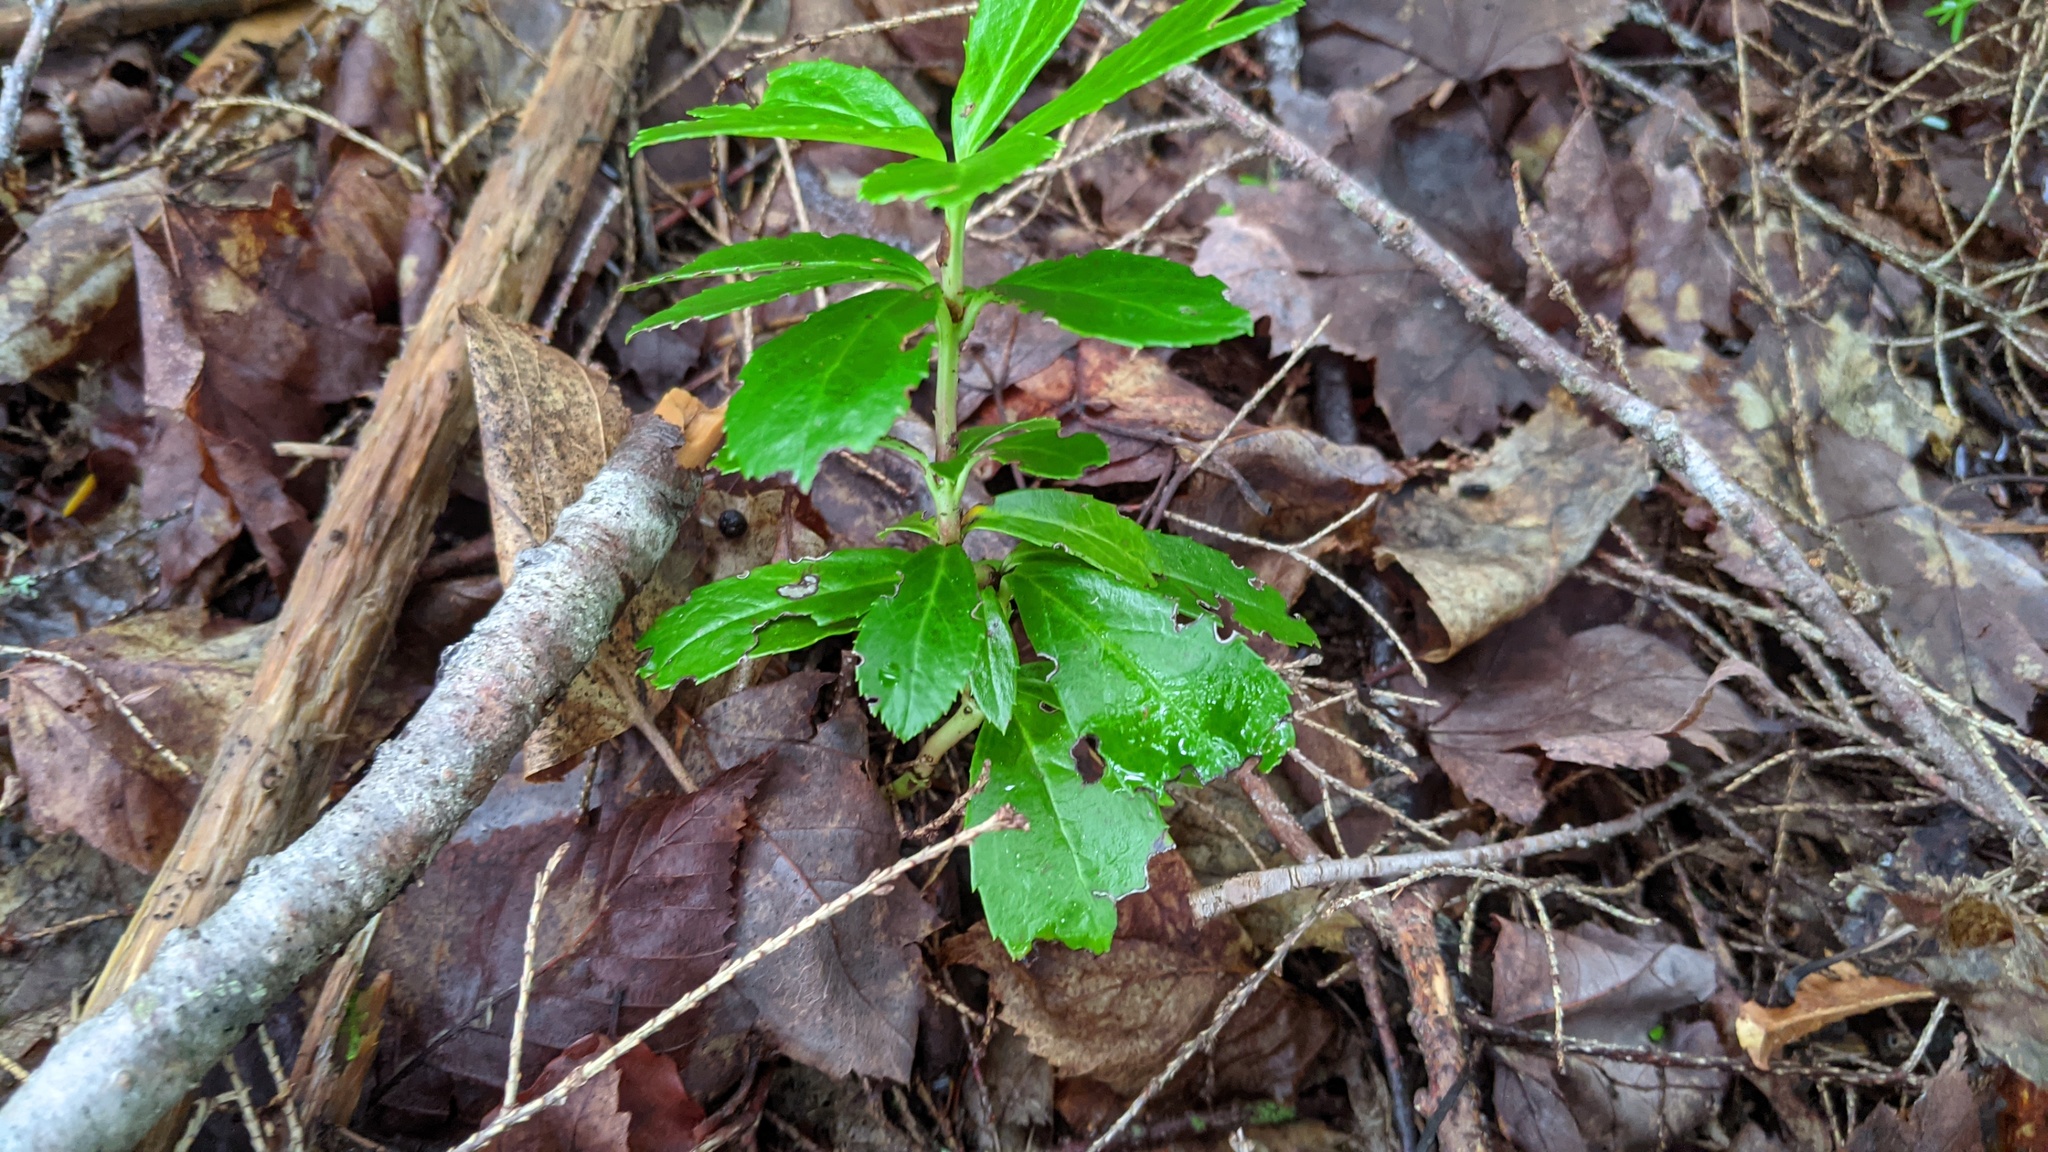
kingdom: Plantae
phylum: Tracheophyta
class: Magnoliopsida
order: Ericales
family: Ericaceae
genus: Chimaphila
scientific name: Chimaphila umbellata
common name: Pipsissewa
